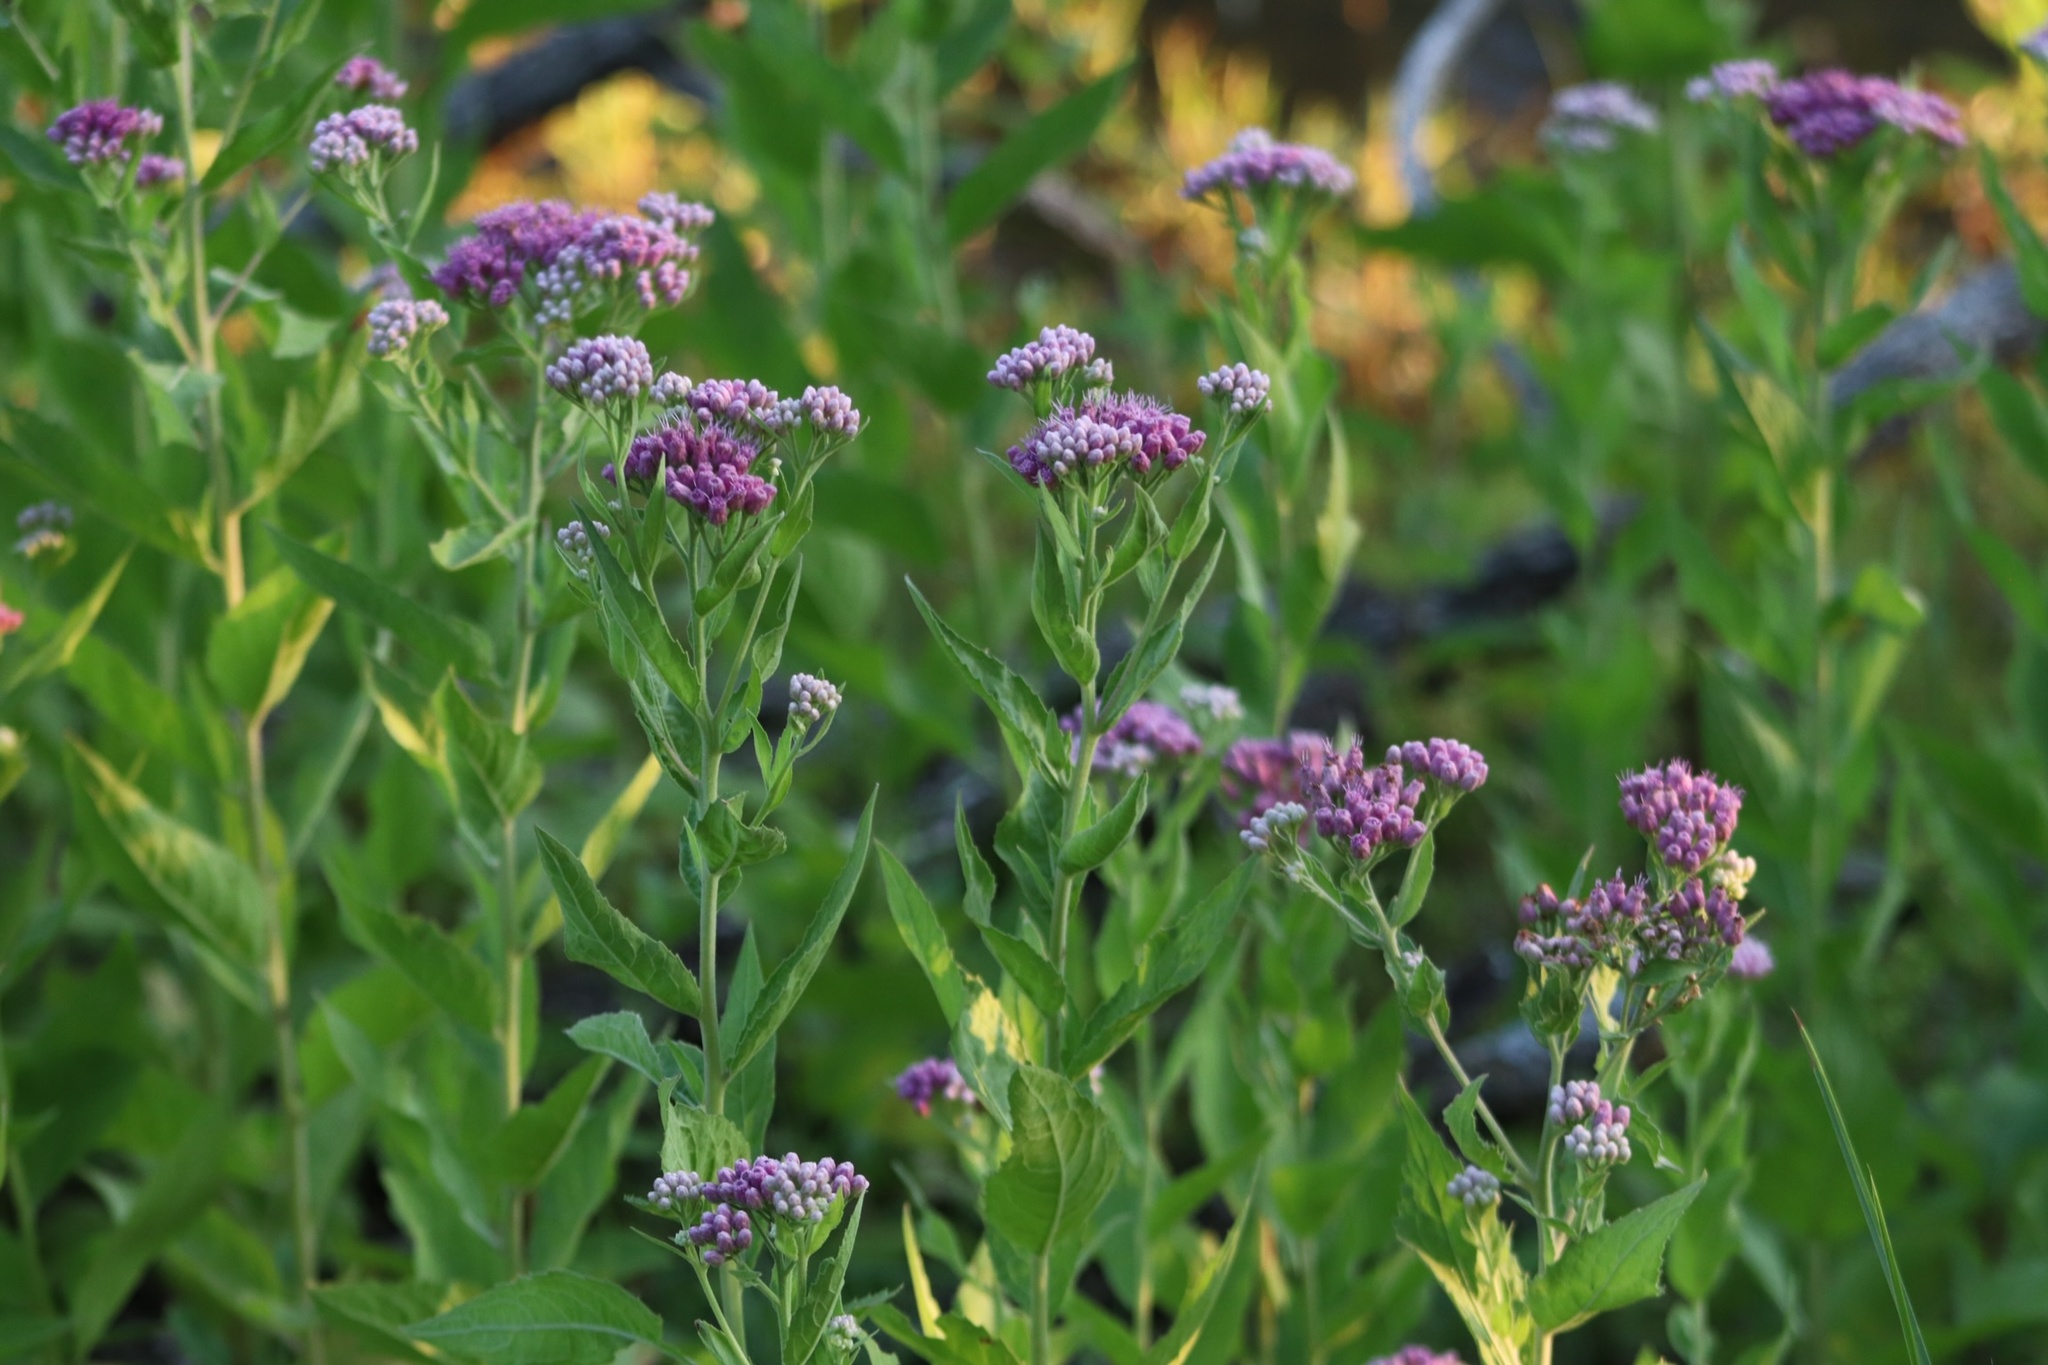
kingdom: Plantae
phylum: Tracheophyta
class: Magnoliopsida
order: Asterales
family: Asteraceae
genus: Pluchea
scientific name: Pluchea odorata
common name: Saltmarsh fleabane
